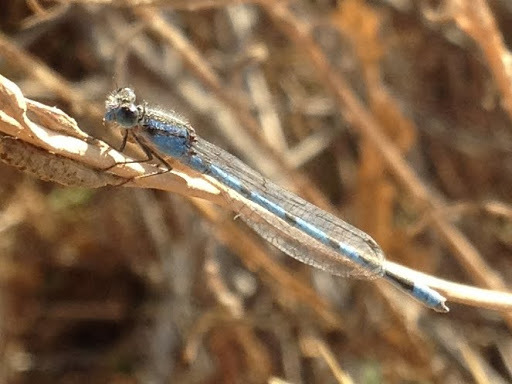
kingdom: Animalia
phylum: Arthropoda
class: Insecta
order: Odonata
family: Coenagrionidae
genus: Enallagma
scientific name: Enallagma
